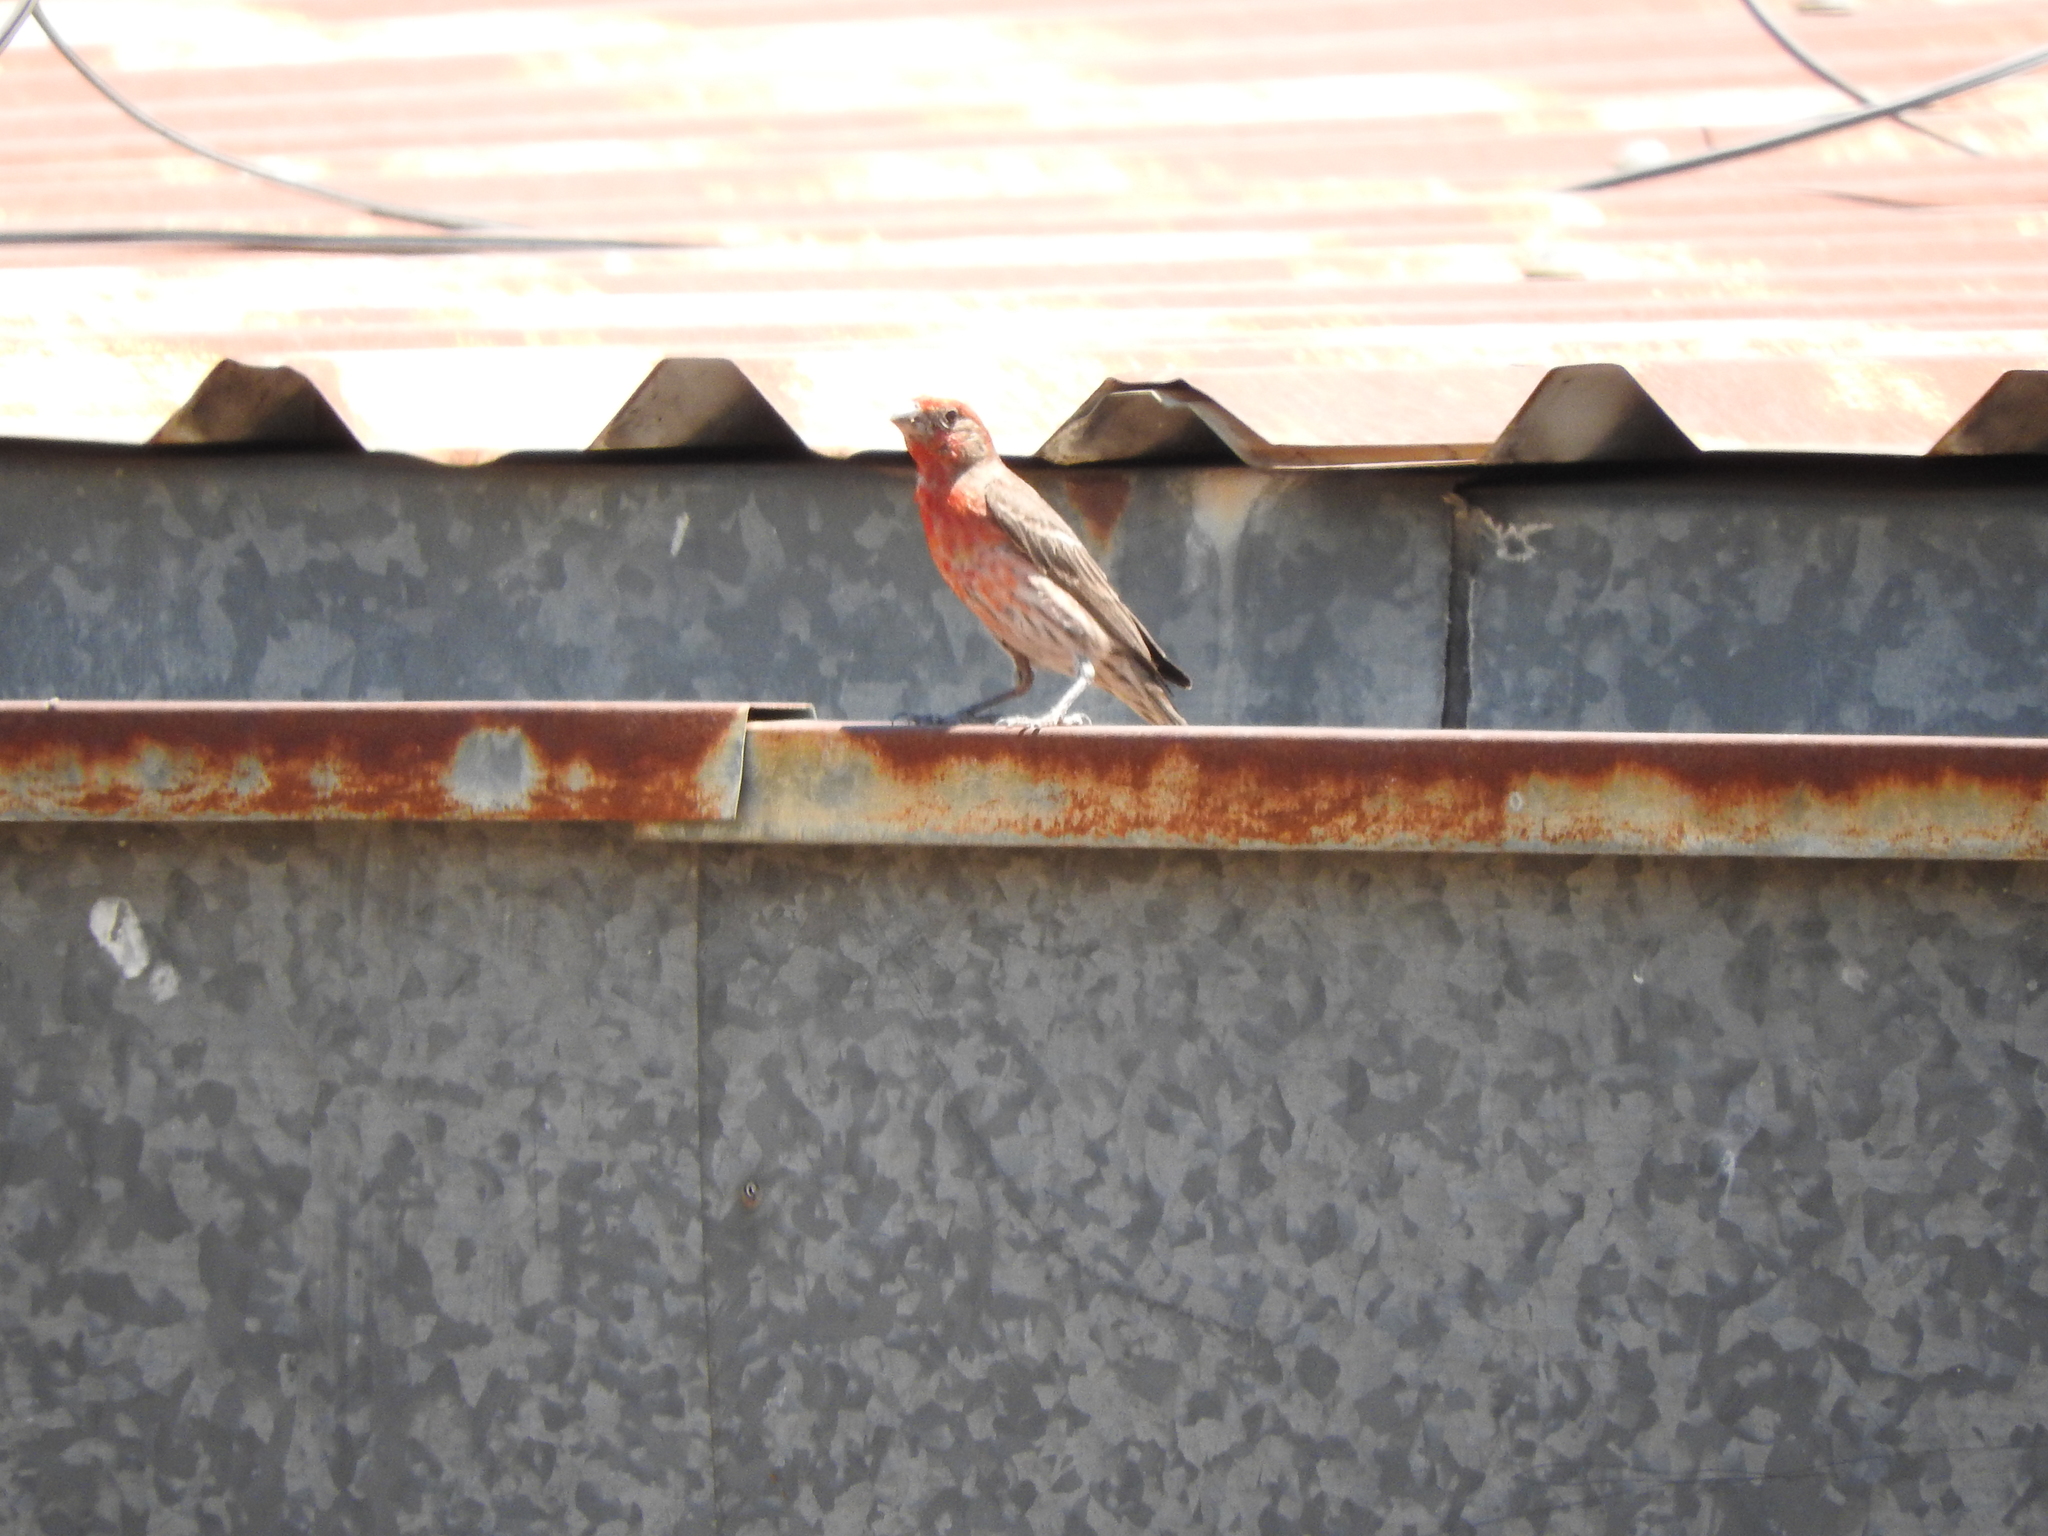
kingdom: Animalia
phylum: Chordata
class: Aves
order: Passeriformes
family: Fringillidae
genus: Haemorhous
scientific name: Haemorhous mexicanus
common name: House finch
